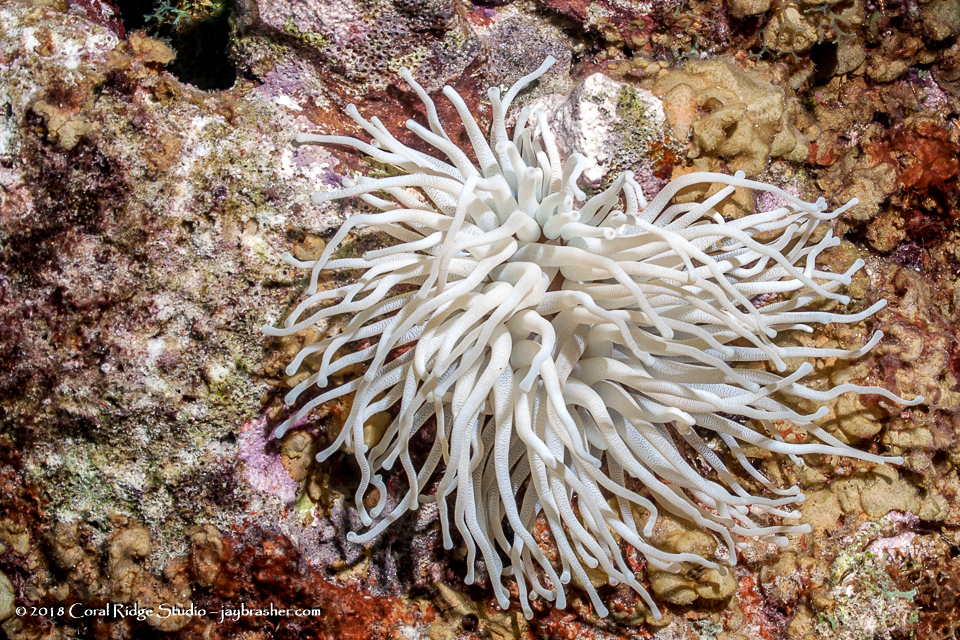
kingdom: Animalia
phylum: Cnidaria
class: Anthozoa
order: Actiniaria
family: Actiniidae
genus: Condylactis
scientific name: Condylactis gigantea
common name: Giant caribbean anemone
